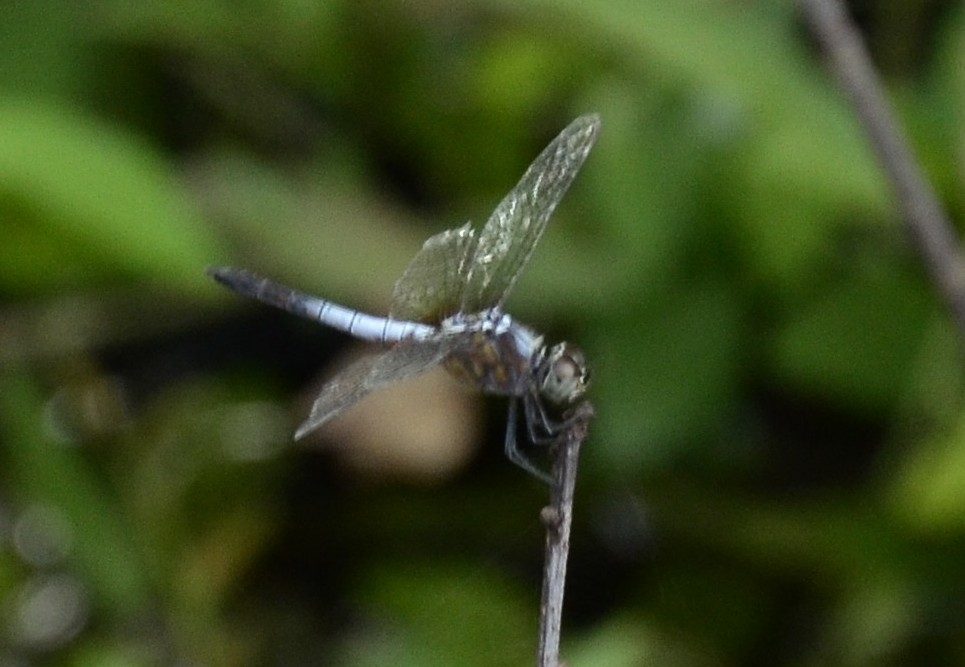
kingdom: Animalia
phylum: Arthropoda
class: Insecta
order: Odonata
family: Libellulidae
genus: Brachydiplax
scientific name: Brachydiplax chalybea
